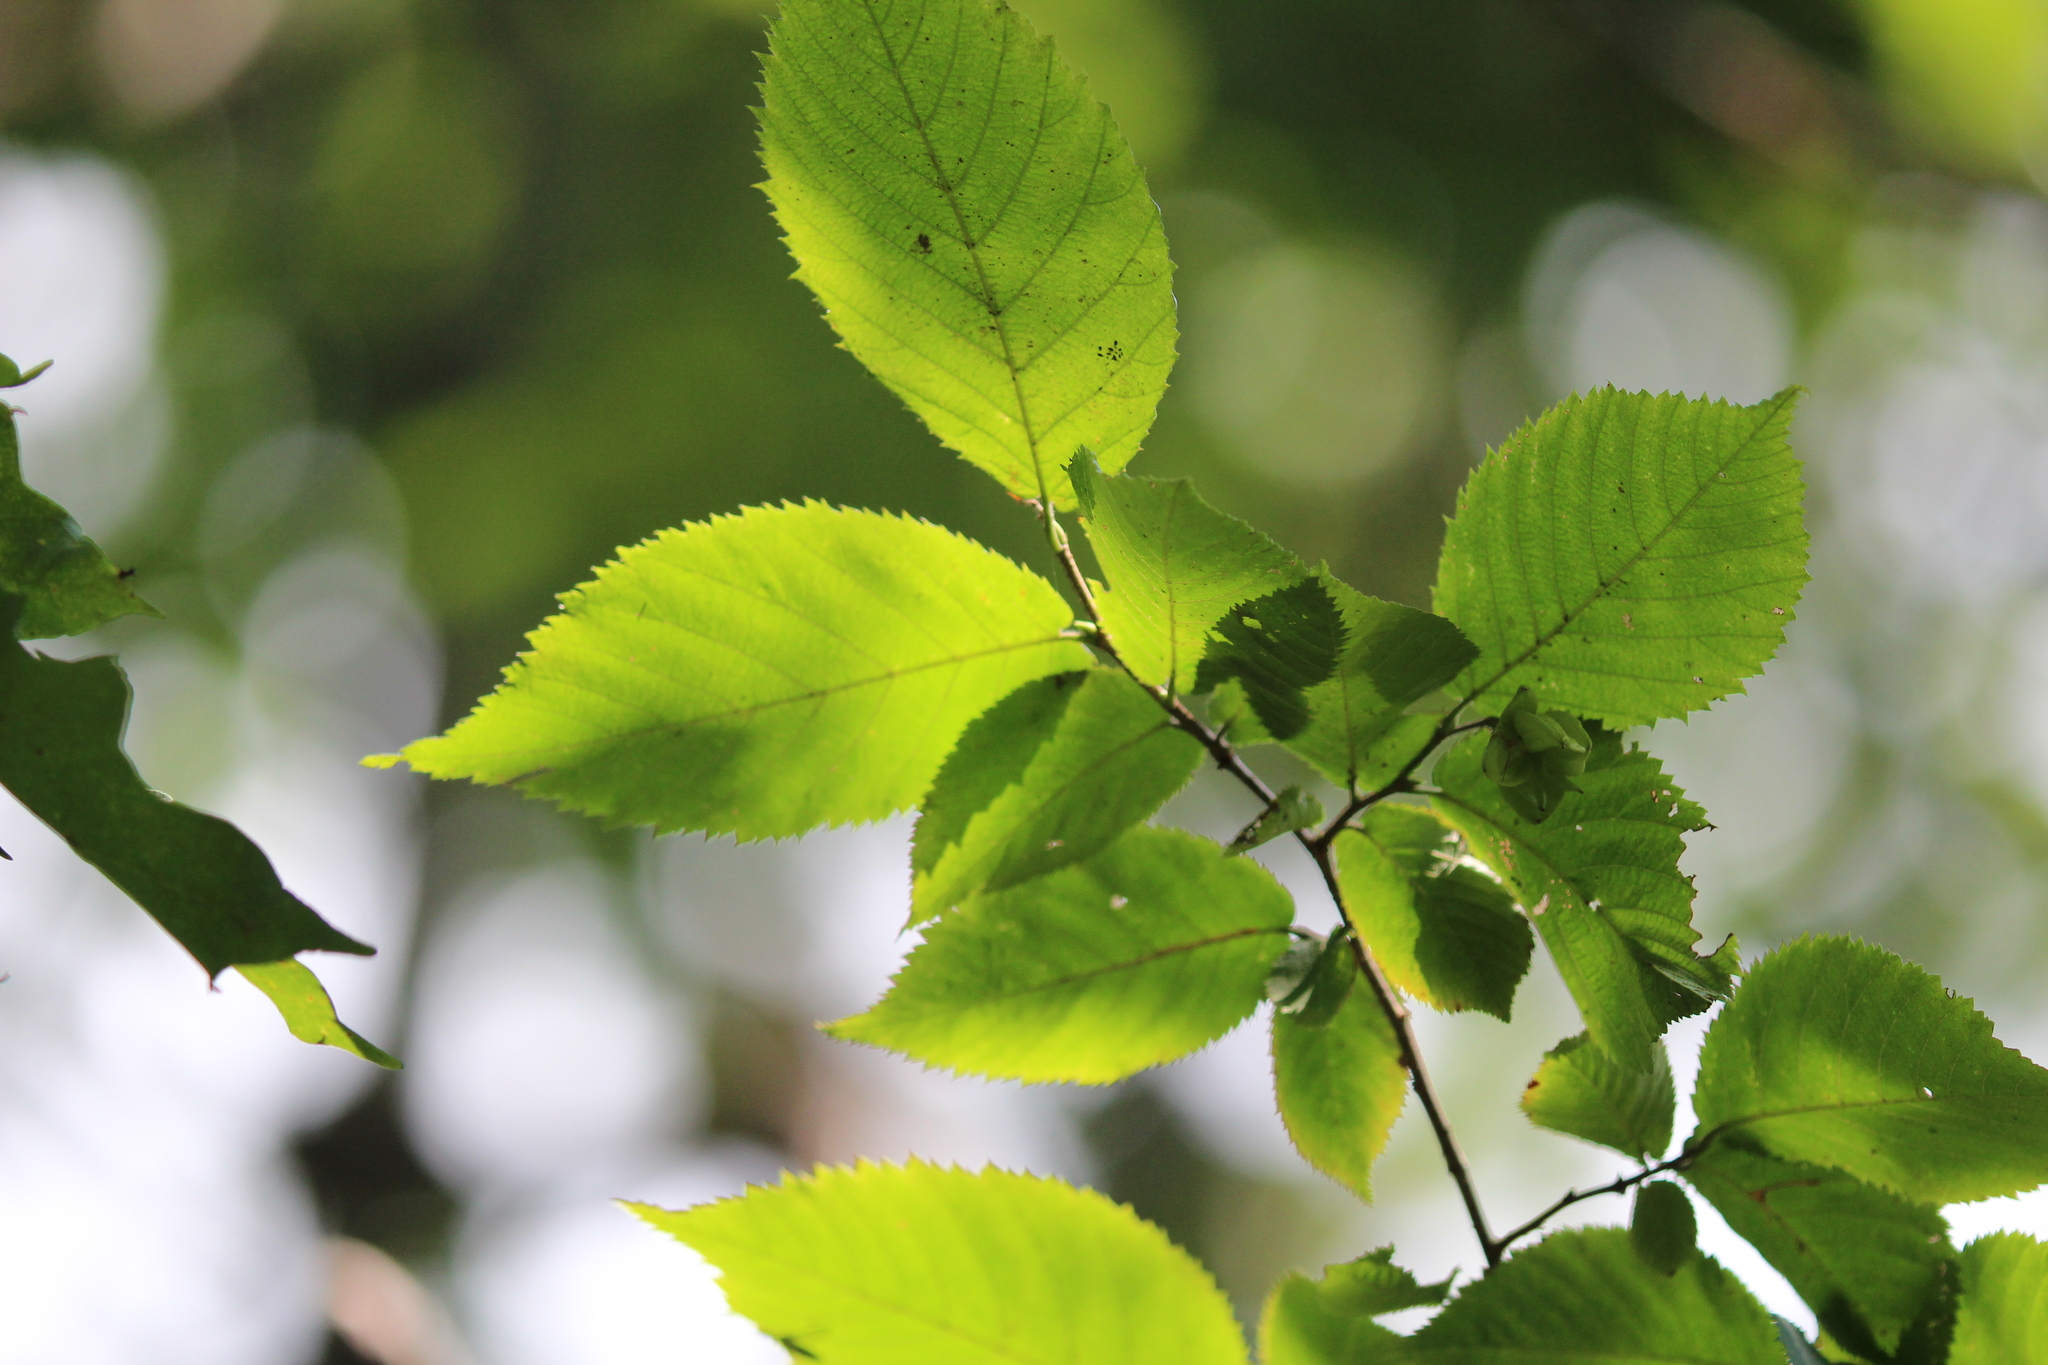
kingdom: Plantae
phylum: Tracheophyta
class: Magnoliopsida
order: Fagales
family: Betulaceae
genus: Ostrya
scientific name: Ostrya virginiana
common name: Ironwood
